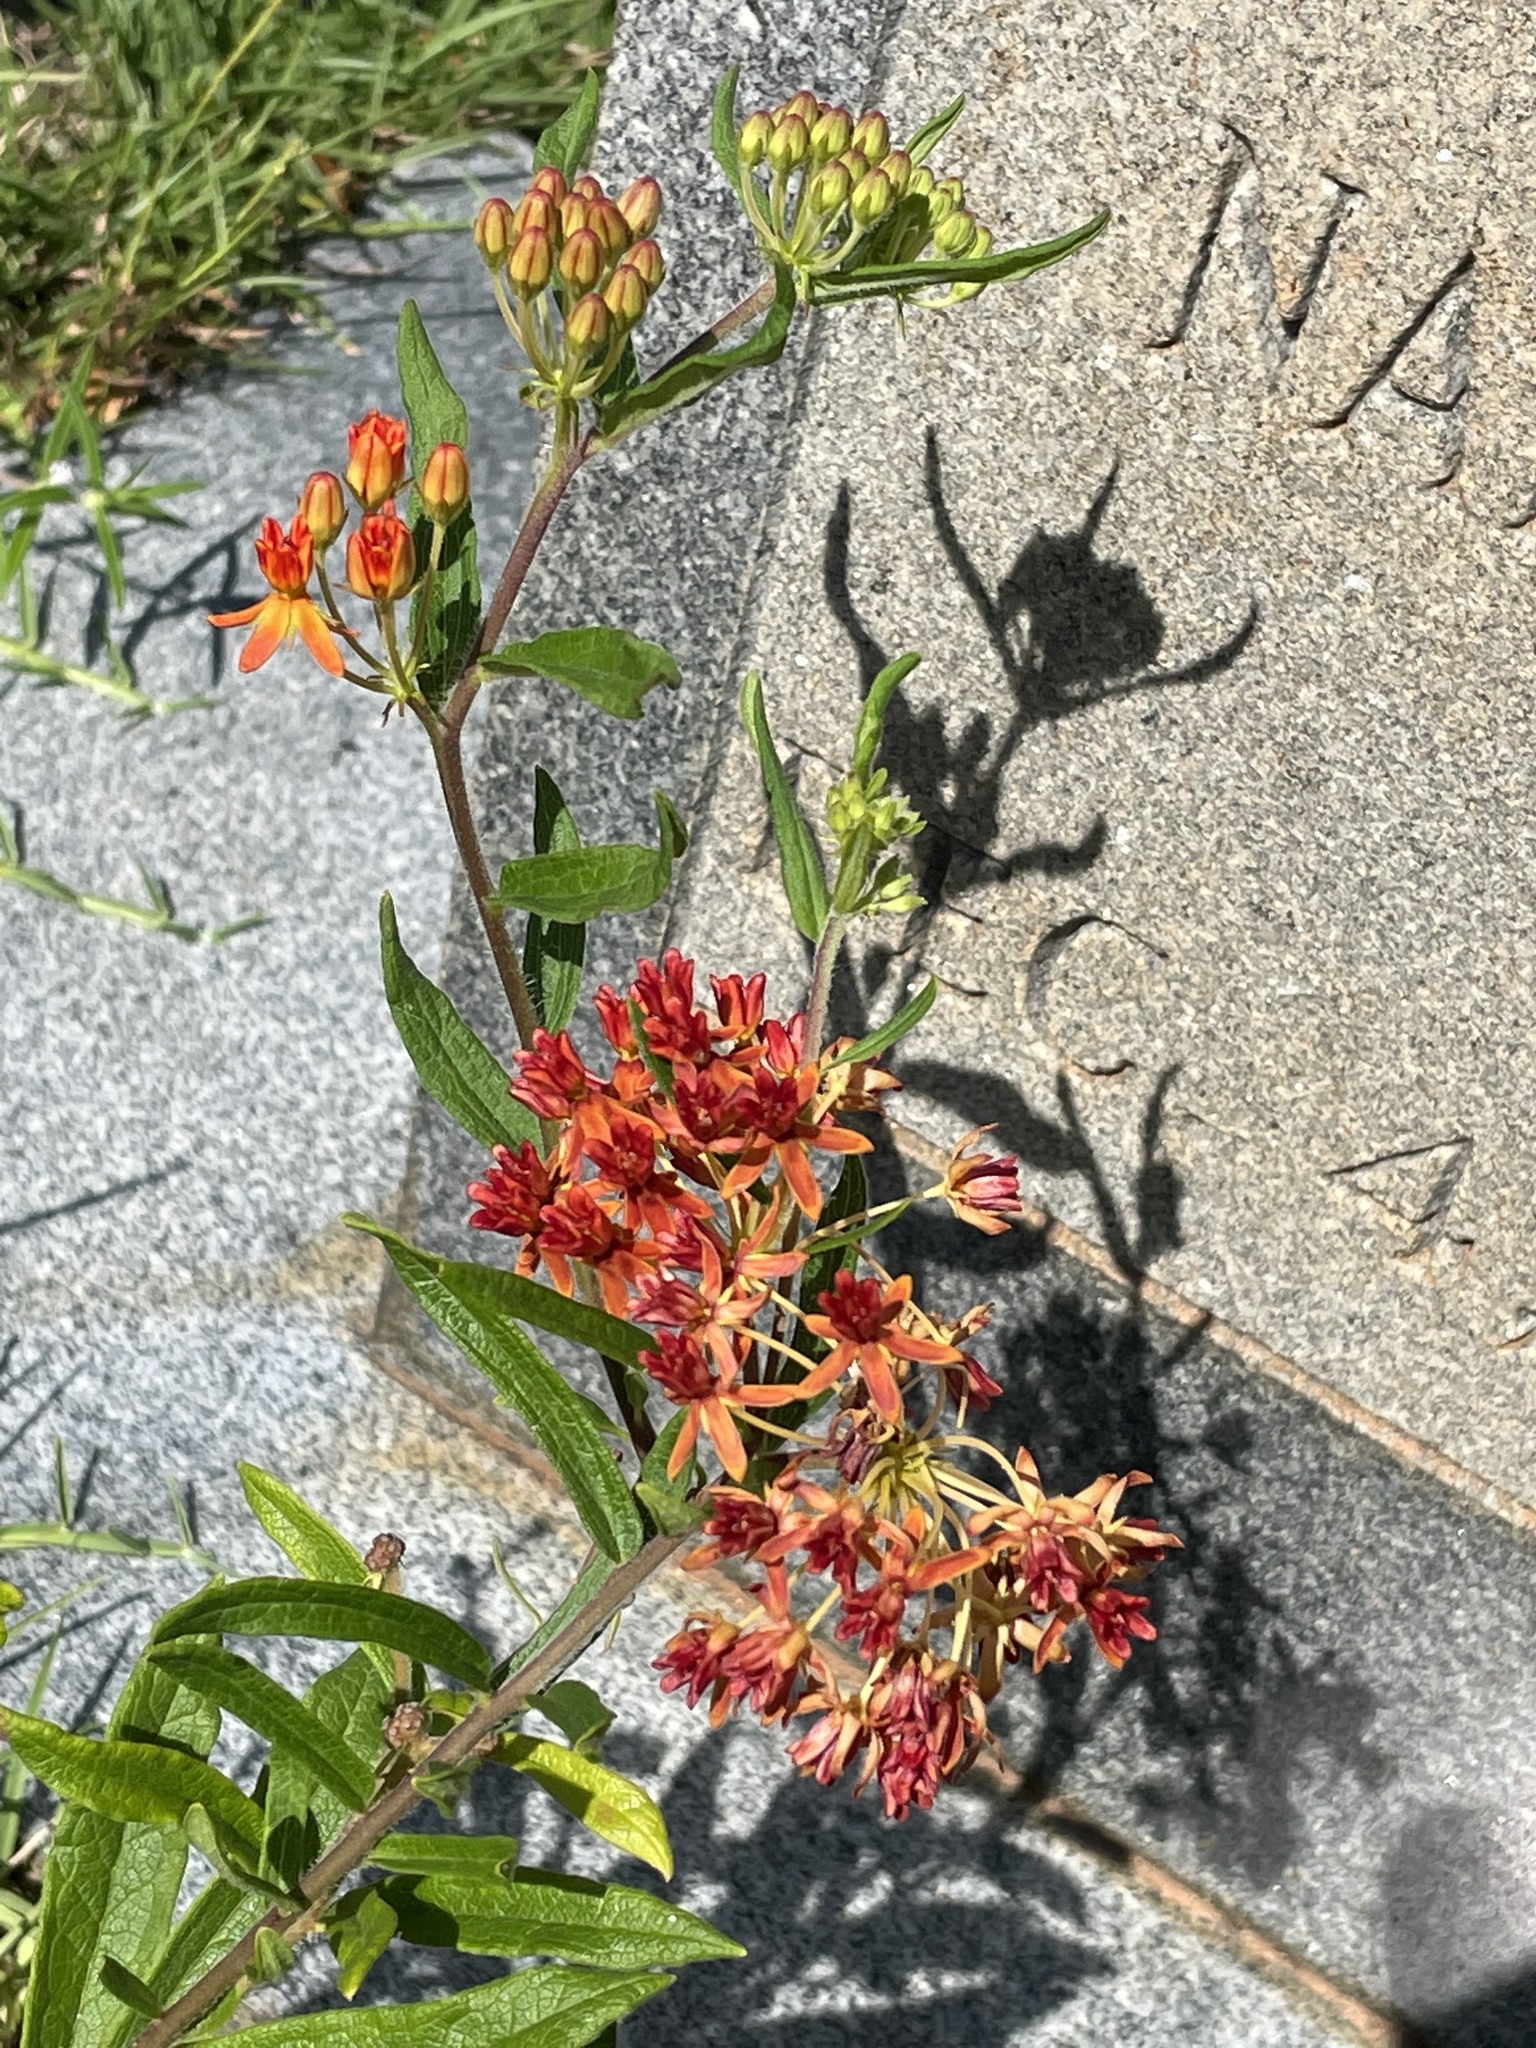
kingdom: Plantae
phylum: Tracheophyta
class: Magnoliopsida
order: Gentianales
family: Apocynaceae
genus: Asclepias
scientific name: Asclepias tuberosa
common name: Butterfly milkweed
